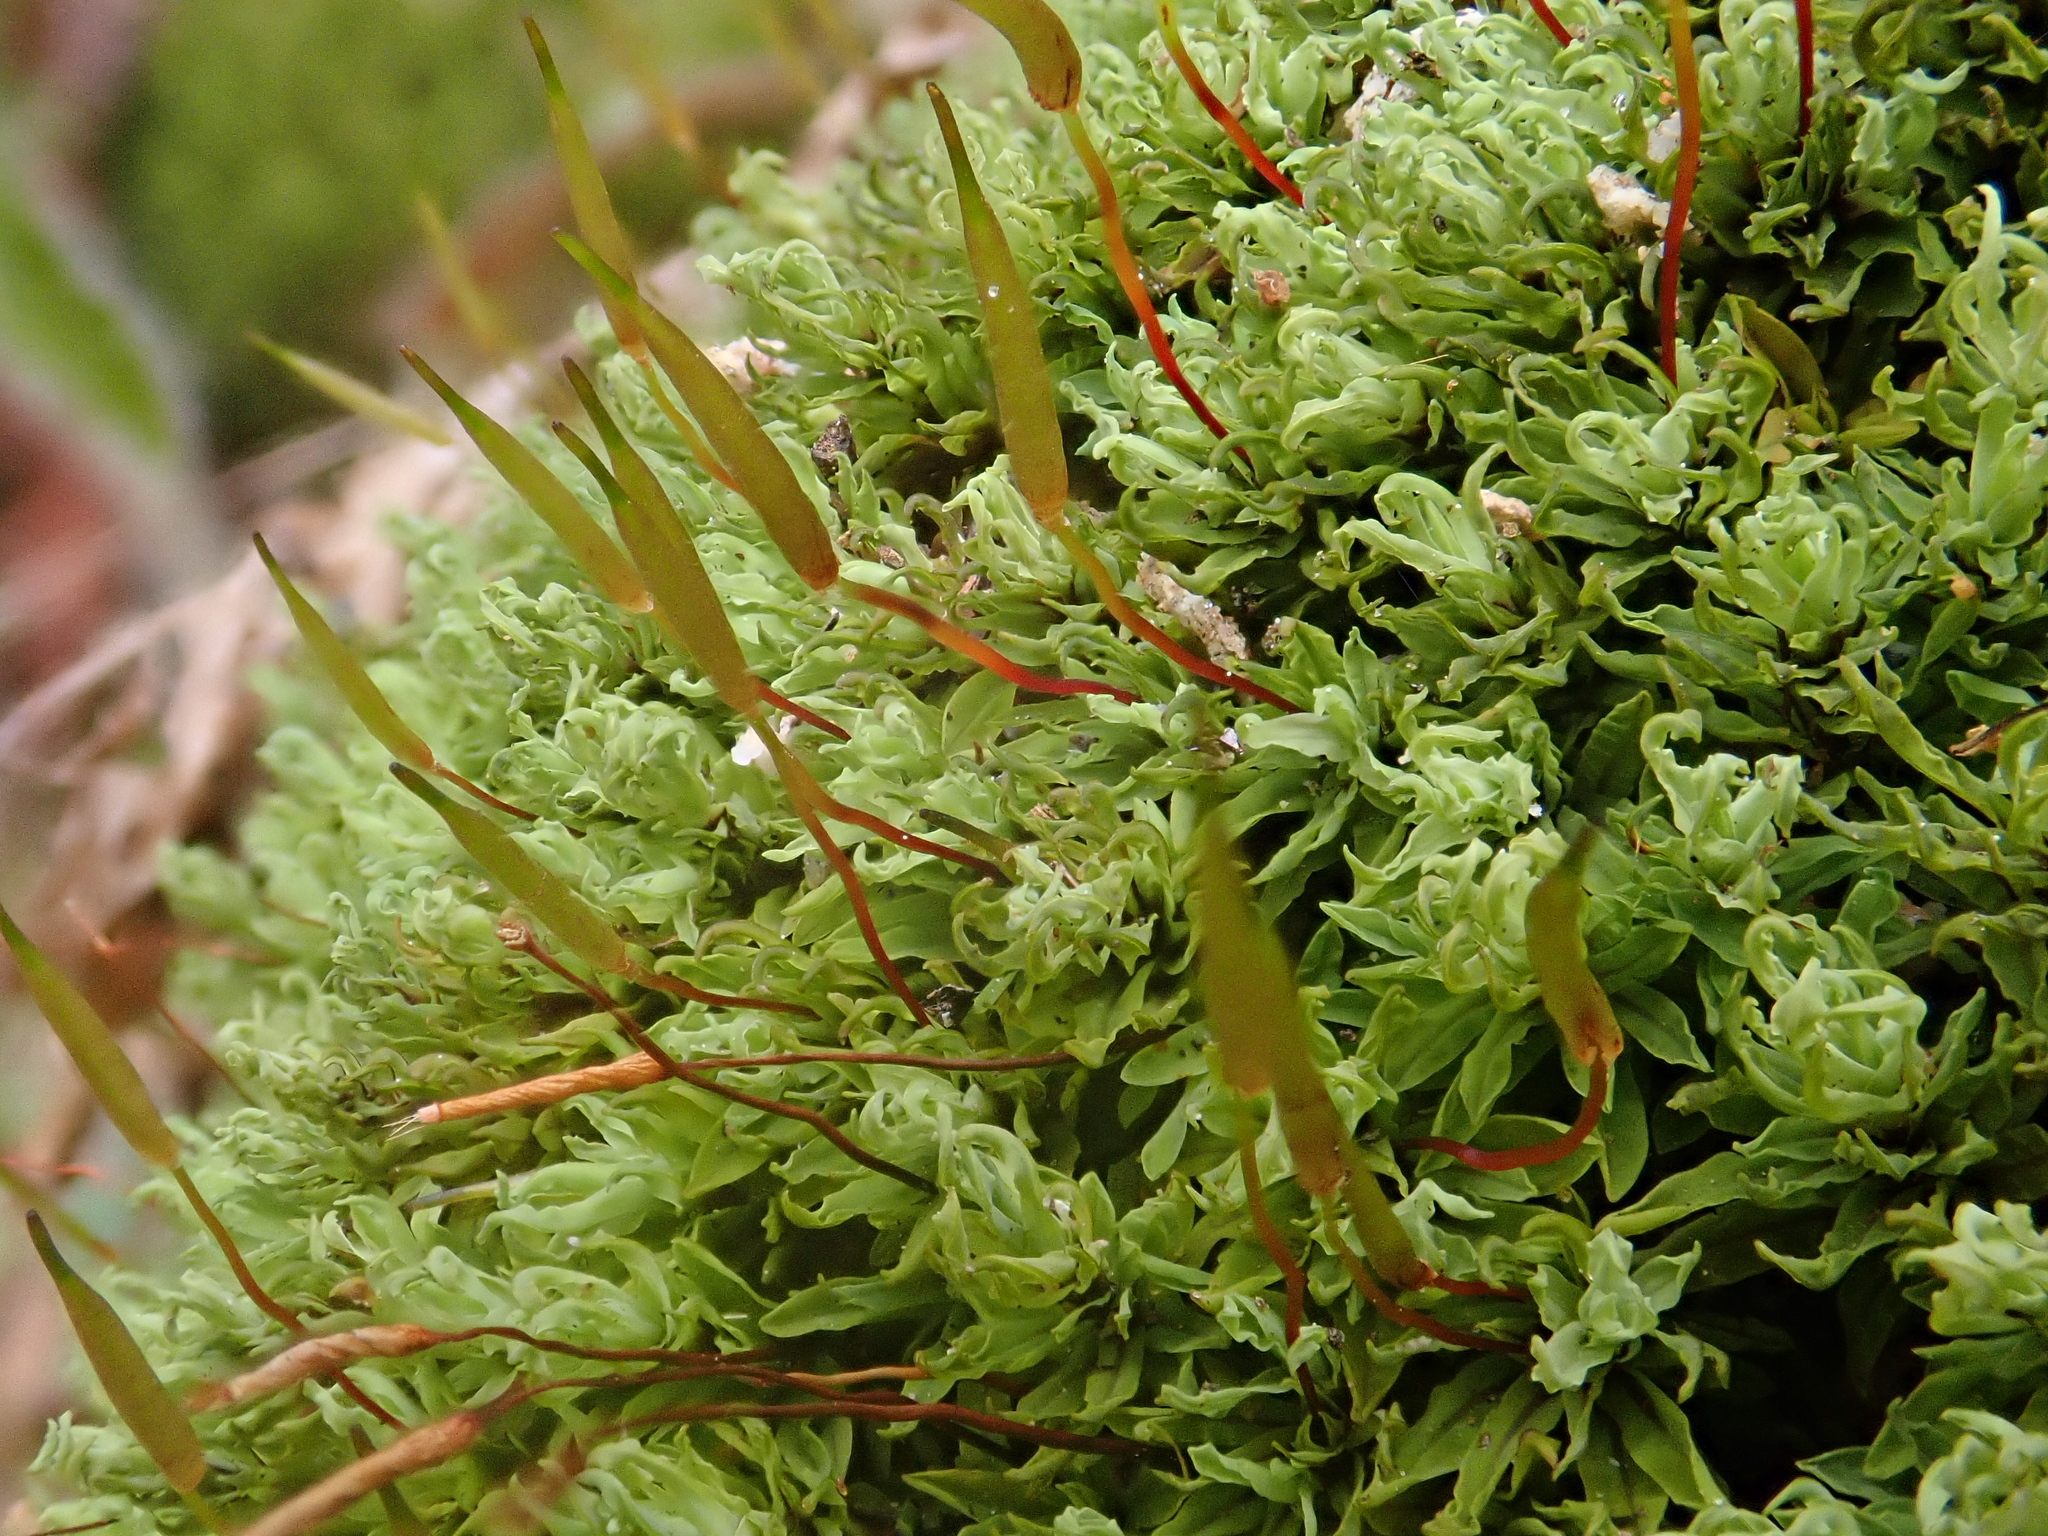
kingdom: Plantae
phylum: Bryophyta
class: Bryopsida
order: Encalyptales
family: Encalyptaceae
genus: Encalypta
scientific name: Encalypta streptocarpa
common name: Spiral extinguisher-moss
